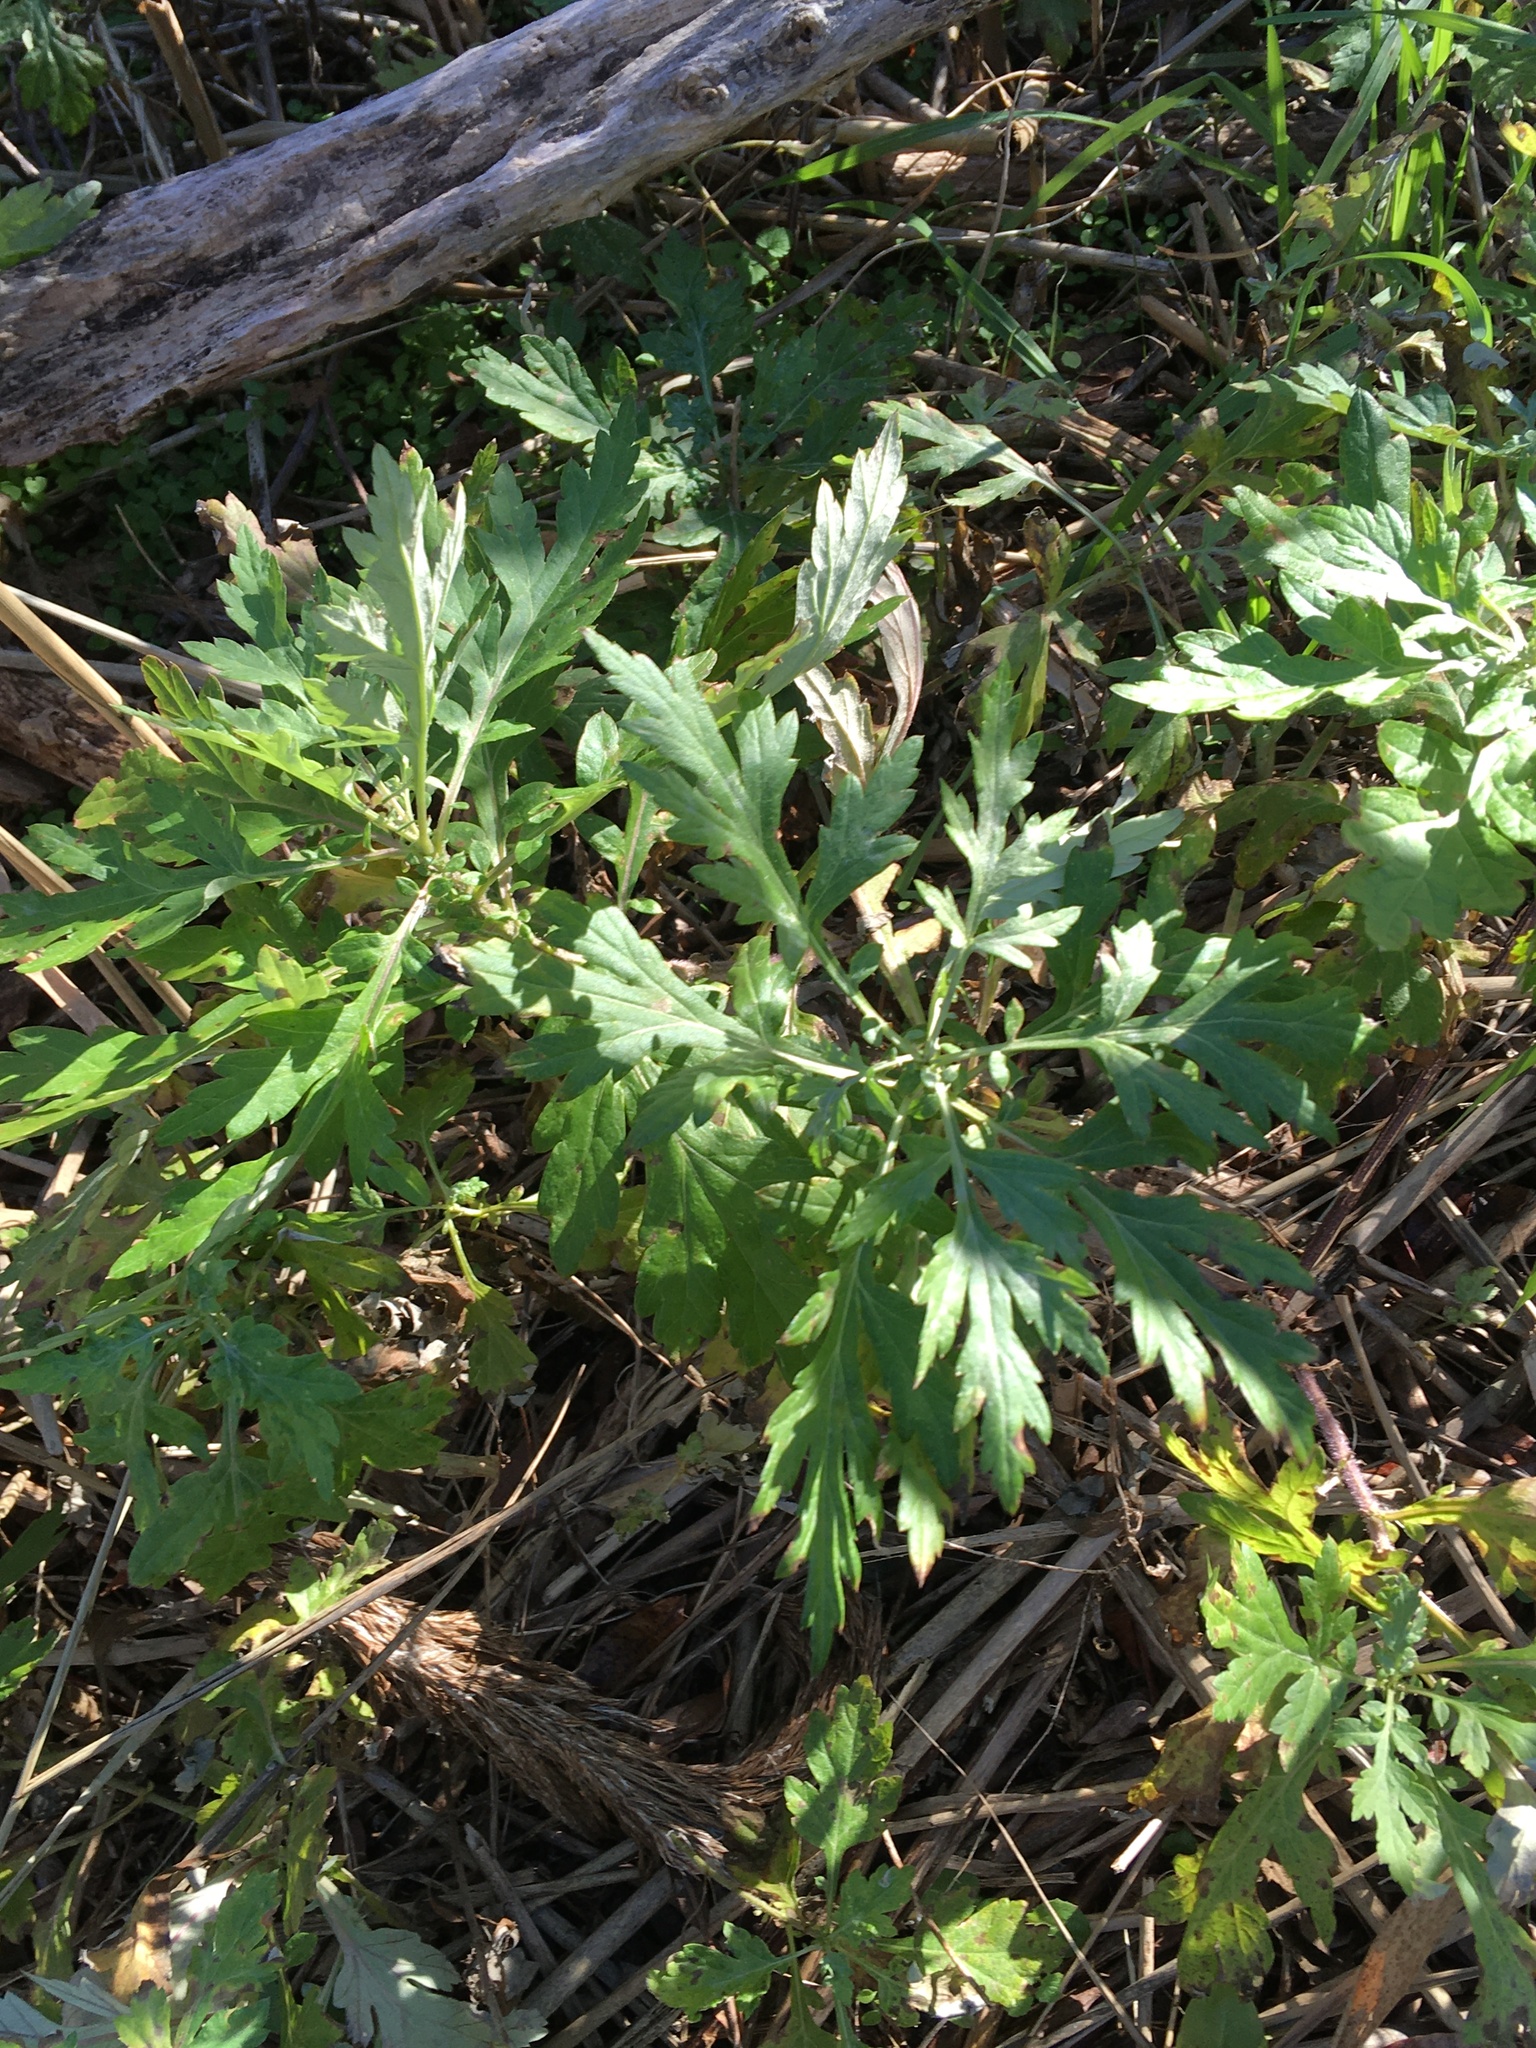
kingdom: Plantae
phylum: Tracheophyta
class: Magnoliopsida
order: Asterales
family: Asteraceae
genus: Artemisia
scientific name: Artemisia vulgaris
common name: Mugwort
